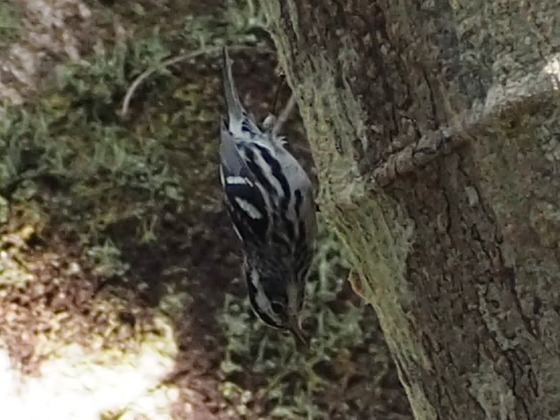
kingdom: Animalia
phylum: Chordata
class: Aves
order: Passeriformes
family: Parulidae
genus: Mniotilta
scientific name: Mniotilta varia
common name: Black-and-white warbler
